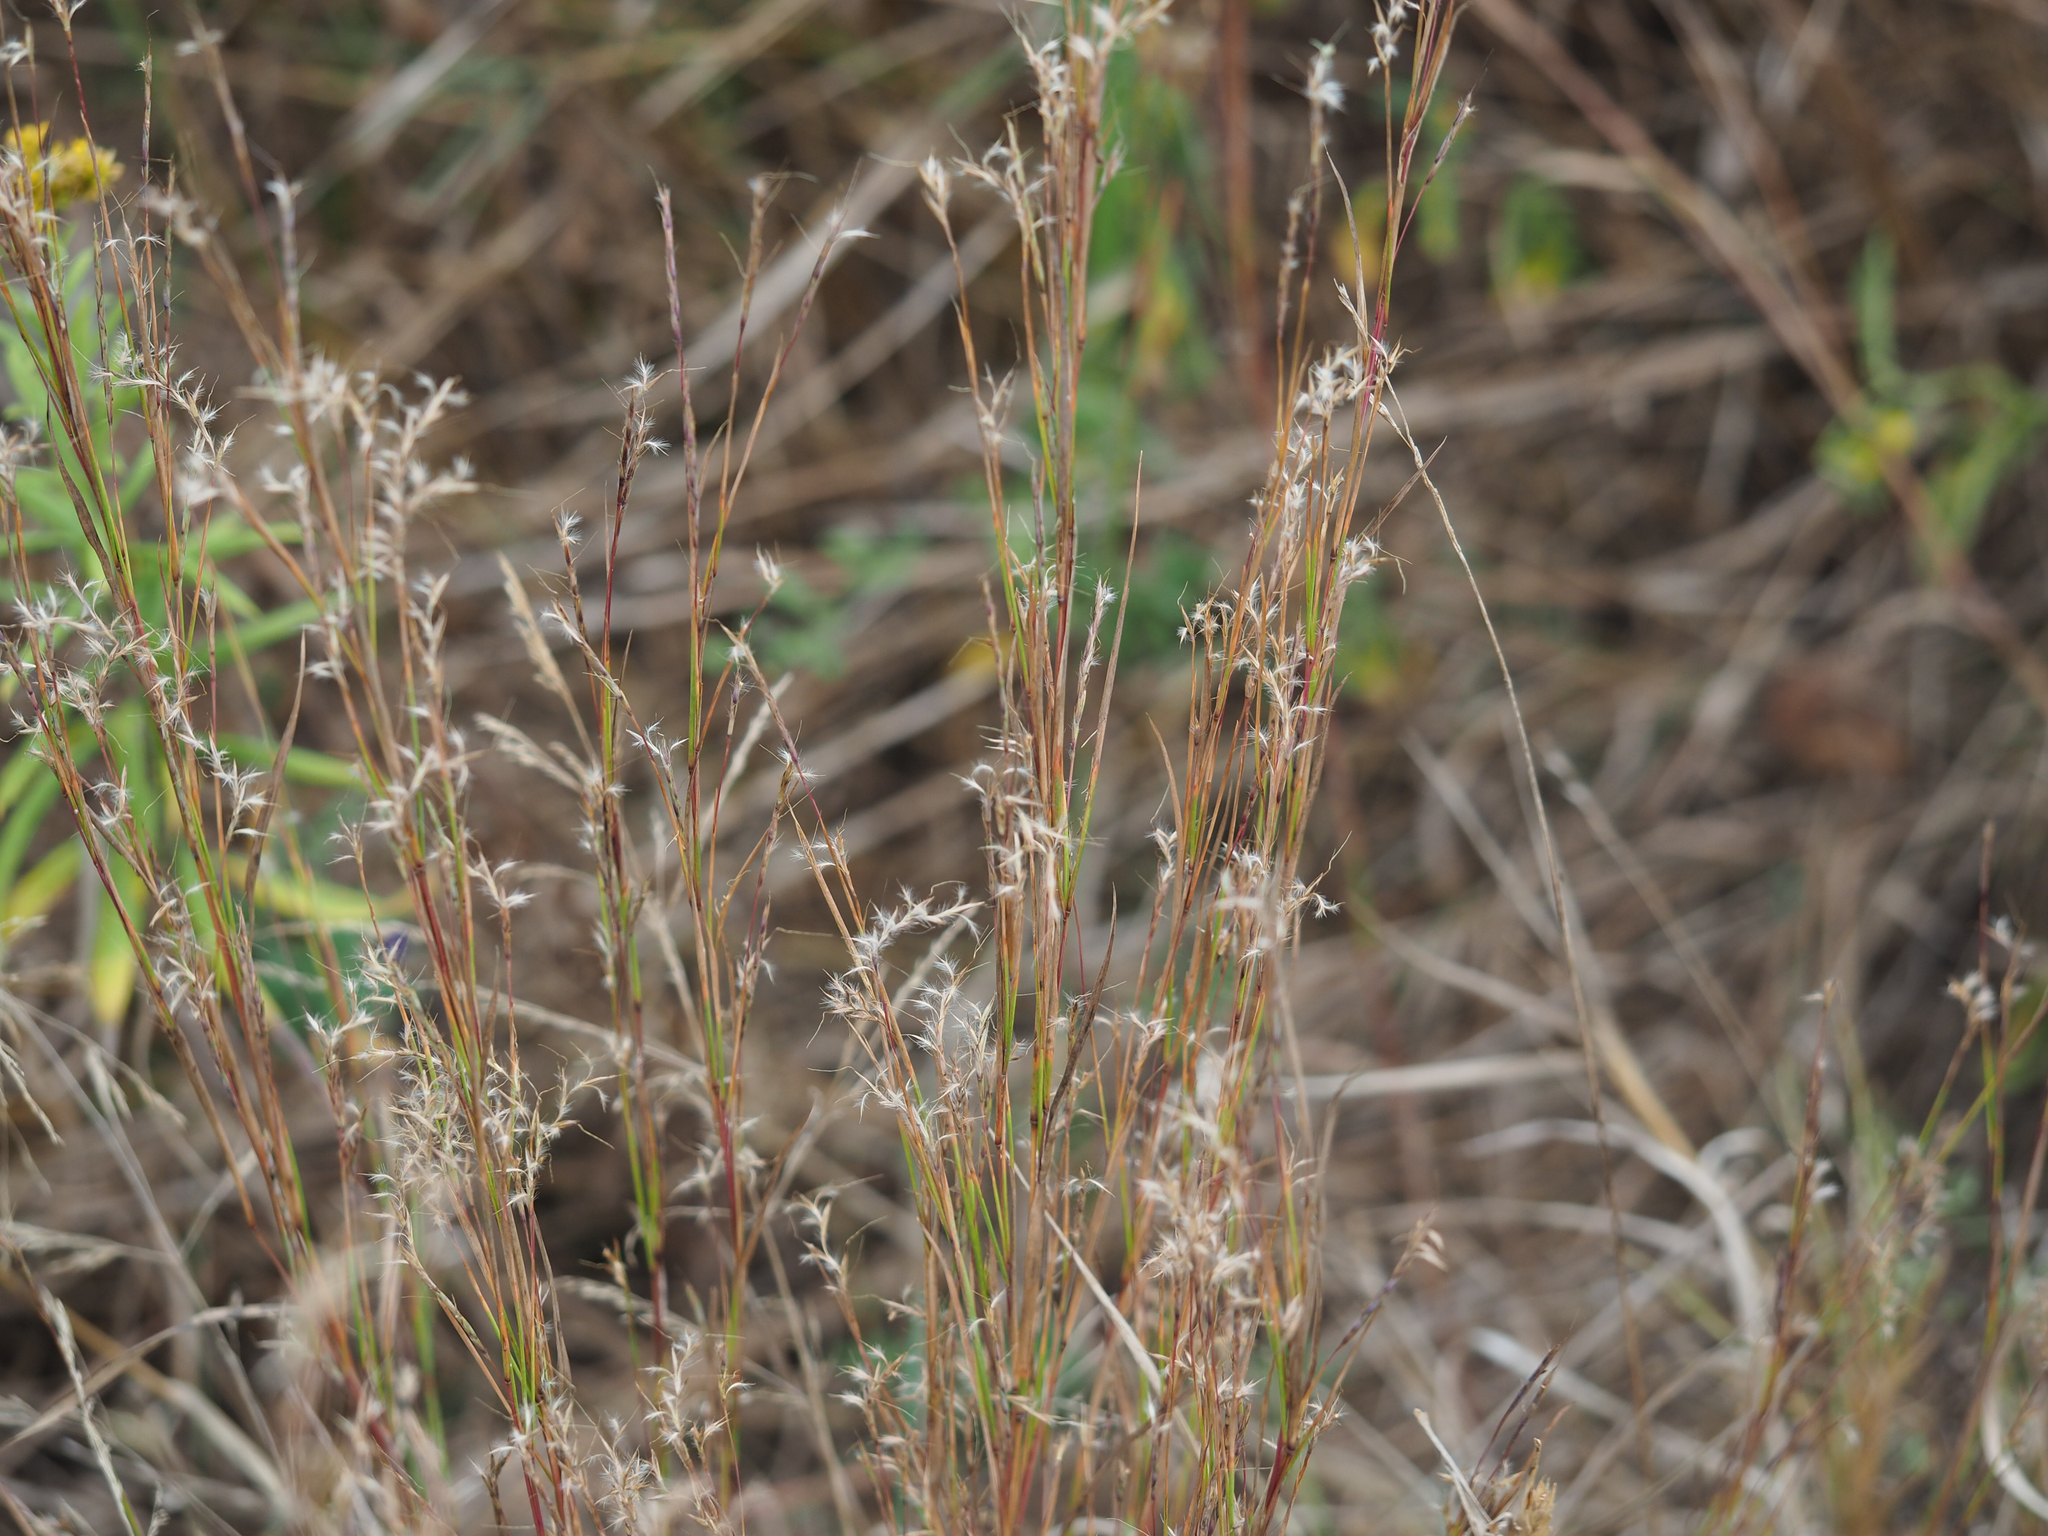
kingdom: Plantae
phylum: Tracheophyta
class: Liliopsida
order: Poales
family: Poaceae
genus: Schizachyrium
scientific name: Schizachyrium scoparium
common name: Little bluestem
